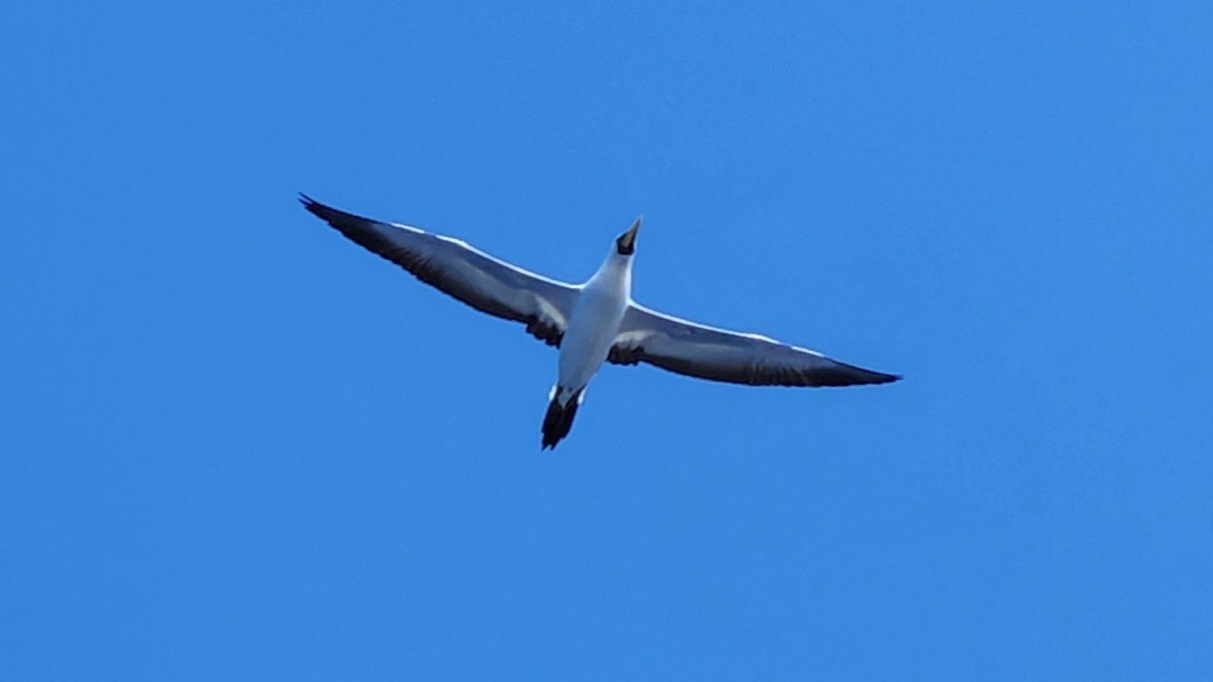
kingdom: Animalia
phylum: Chordata
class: Aves
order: Suliformes
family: Sulidae
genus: Sula
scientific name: Sula dactylatra
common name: Masked booby
